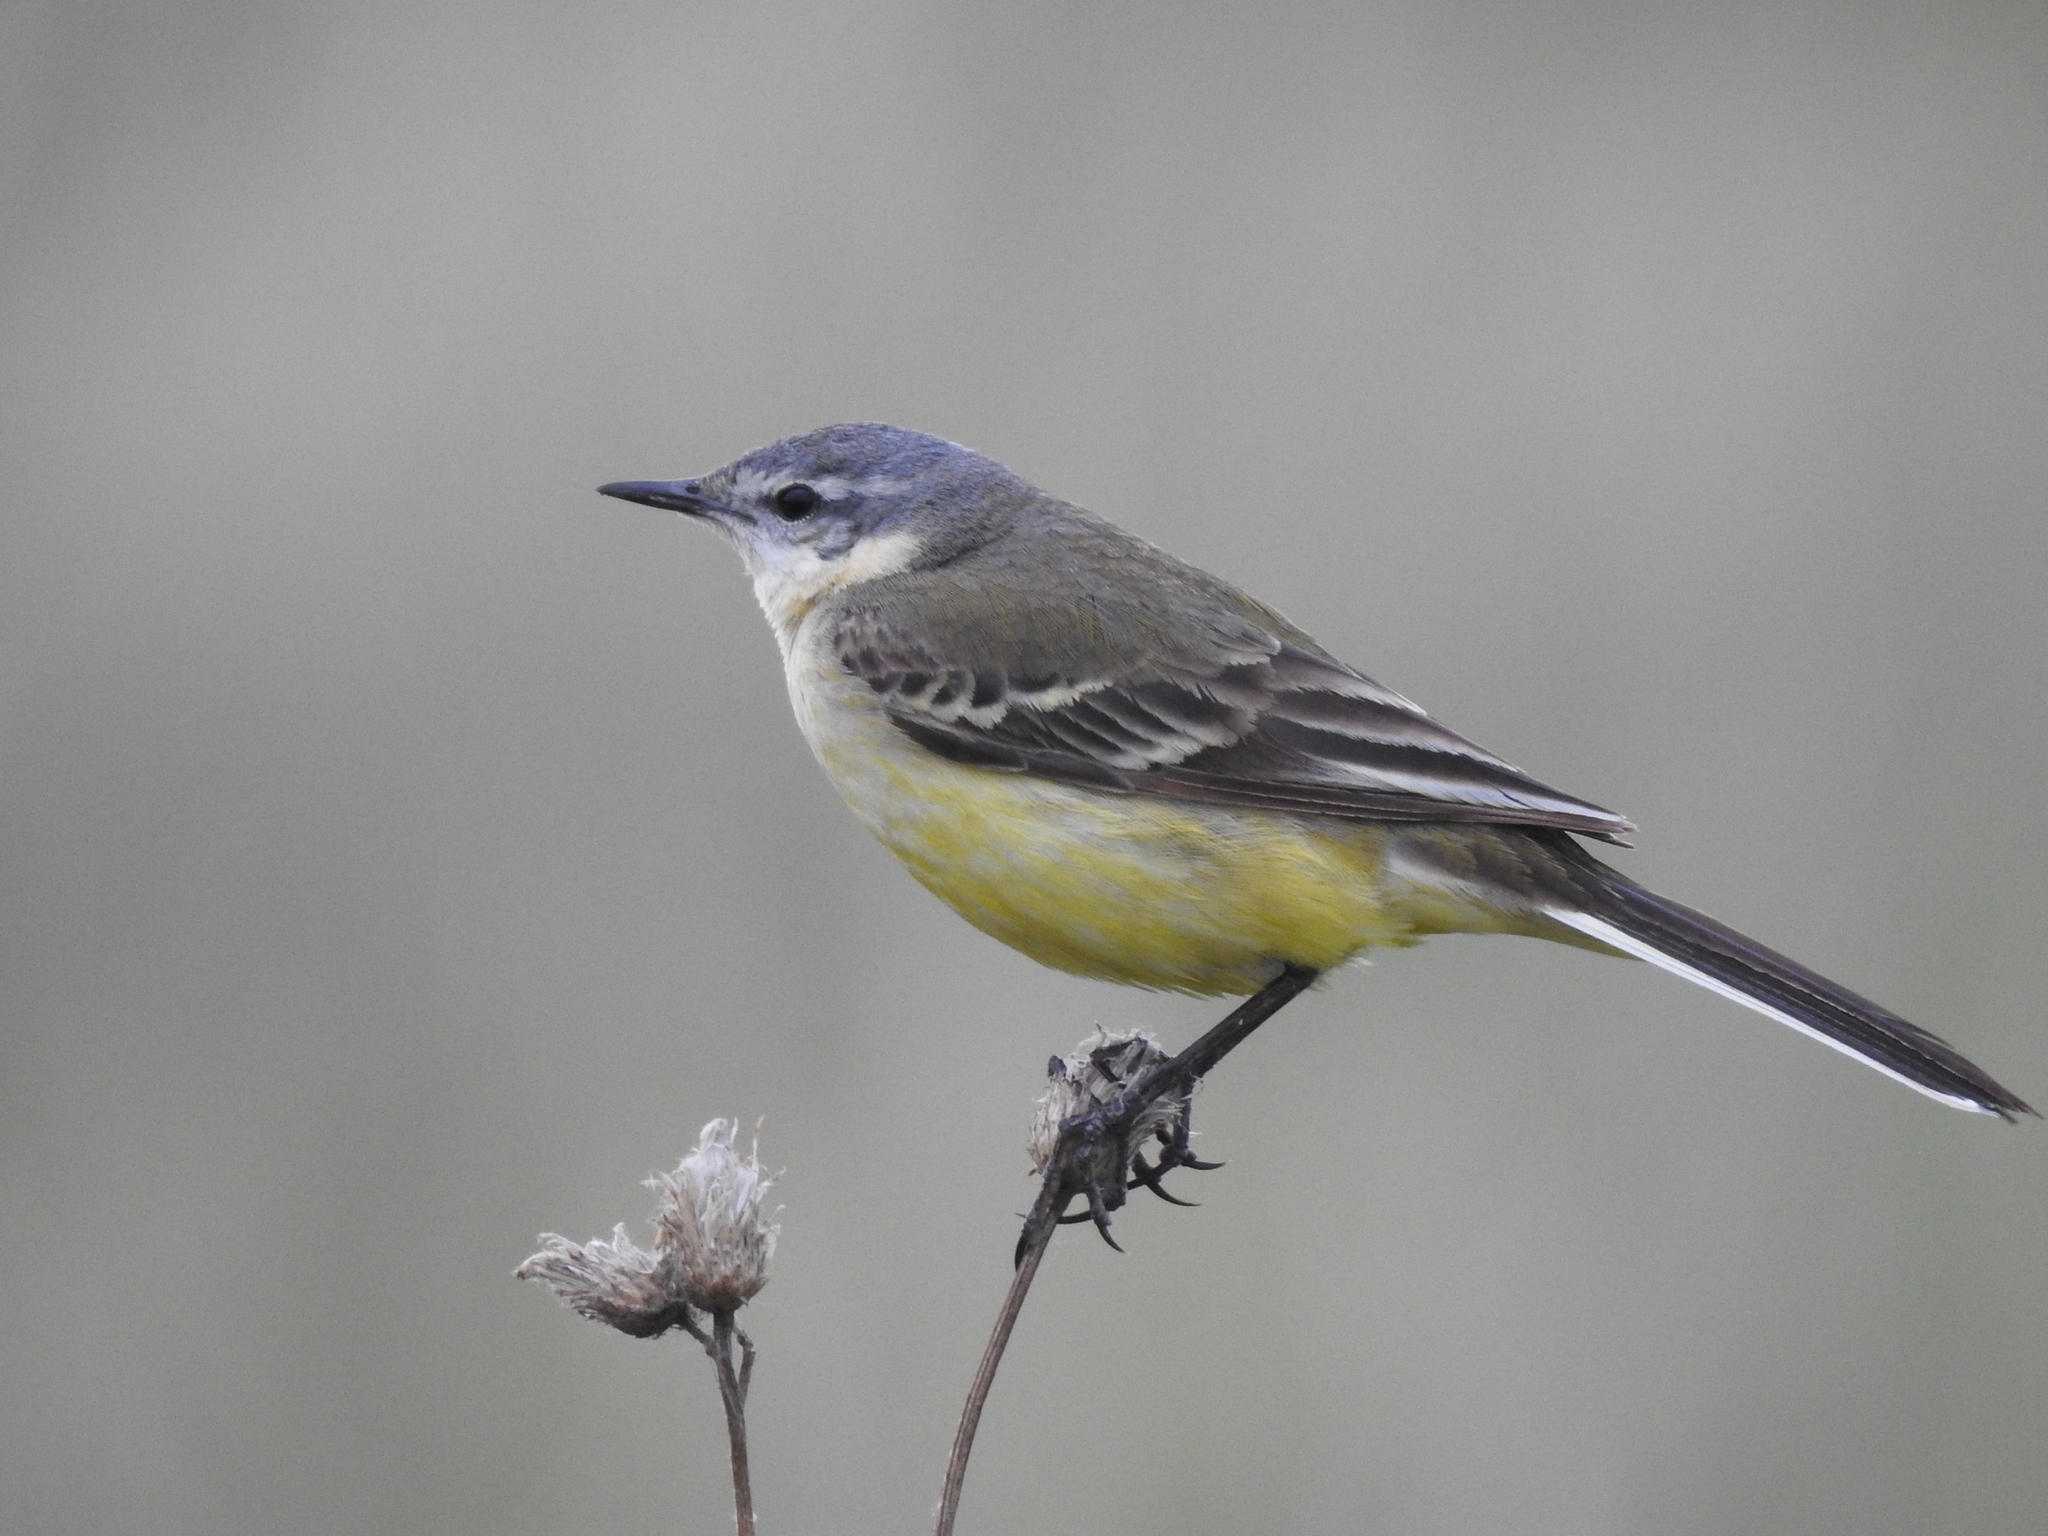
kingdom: Animalia
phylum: Chordata
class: Aves
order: Passeriformes
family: Motacillidae
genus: Motacilla
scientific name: Motacilla flava
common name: Western yellow wagtail
